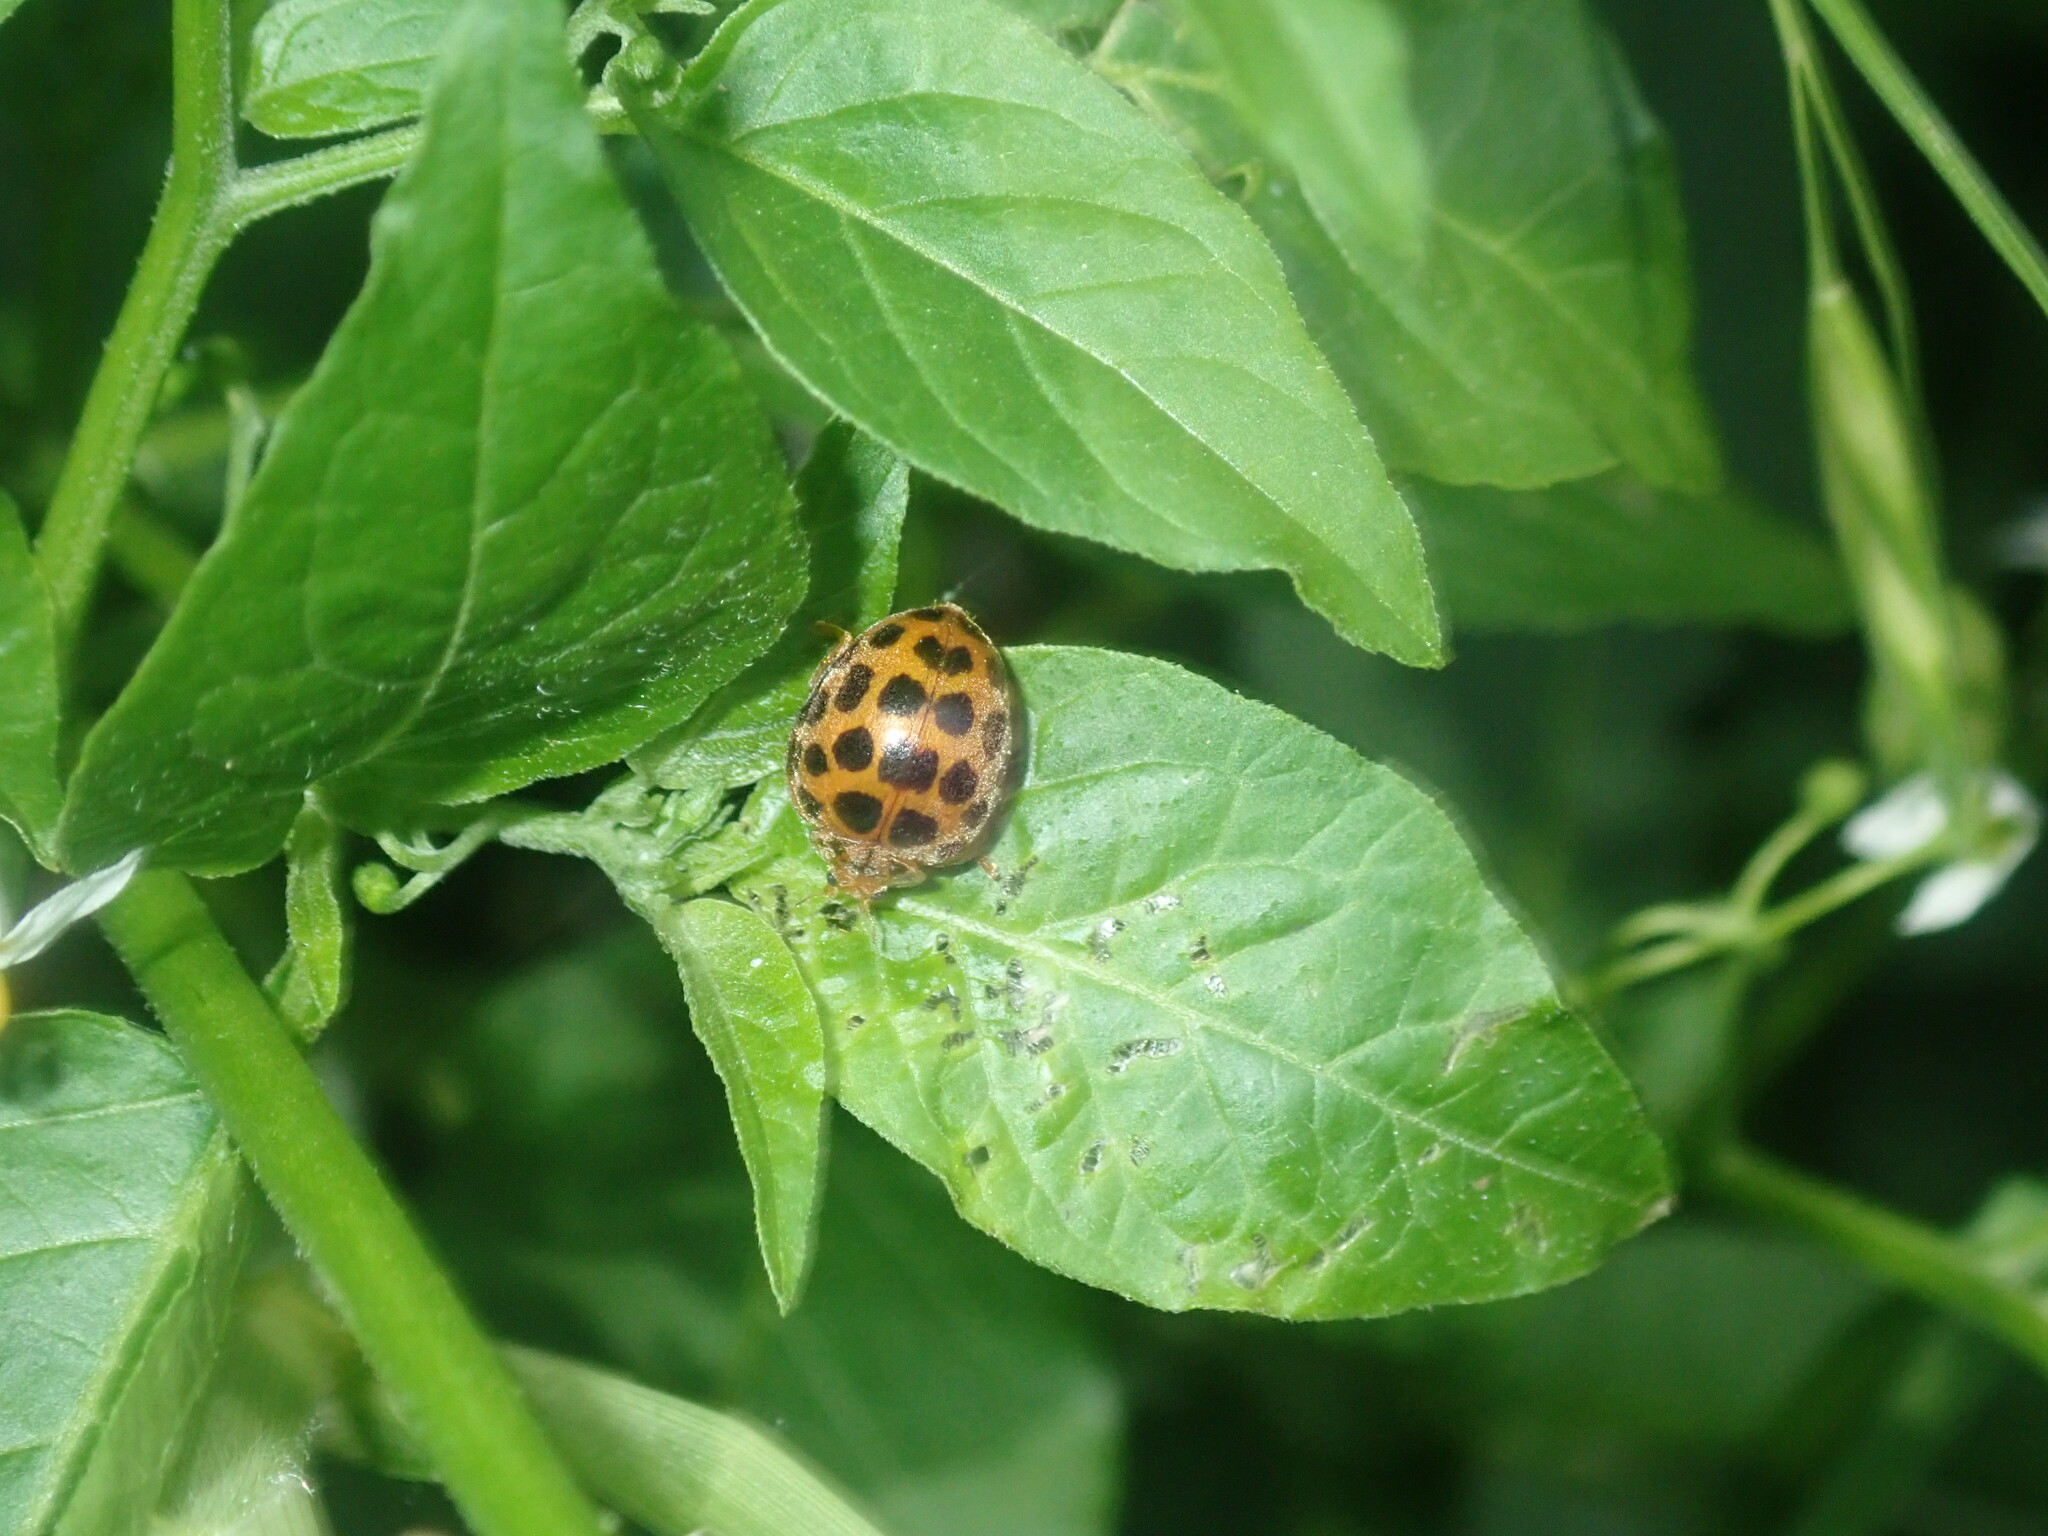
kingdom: Animalia
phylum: Arthropoda
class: Insecta
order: Coleoptera
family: Coccinellidae
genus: Henosepilachna
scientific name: Henosepilachna vigintioctopunctata
